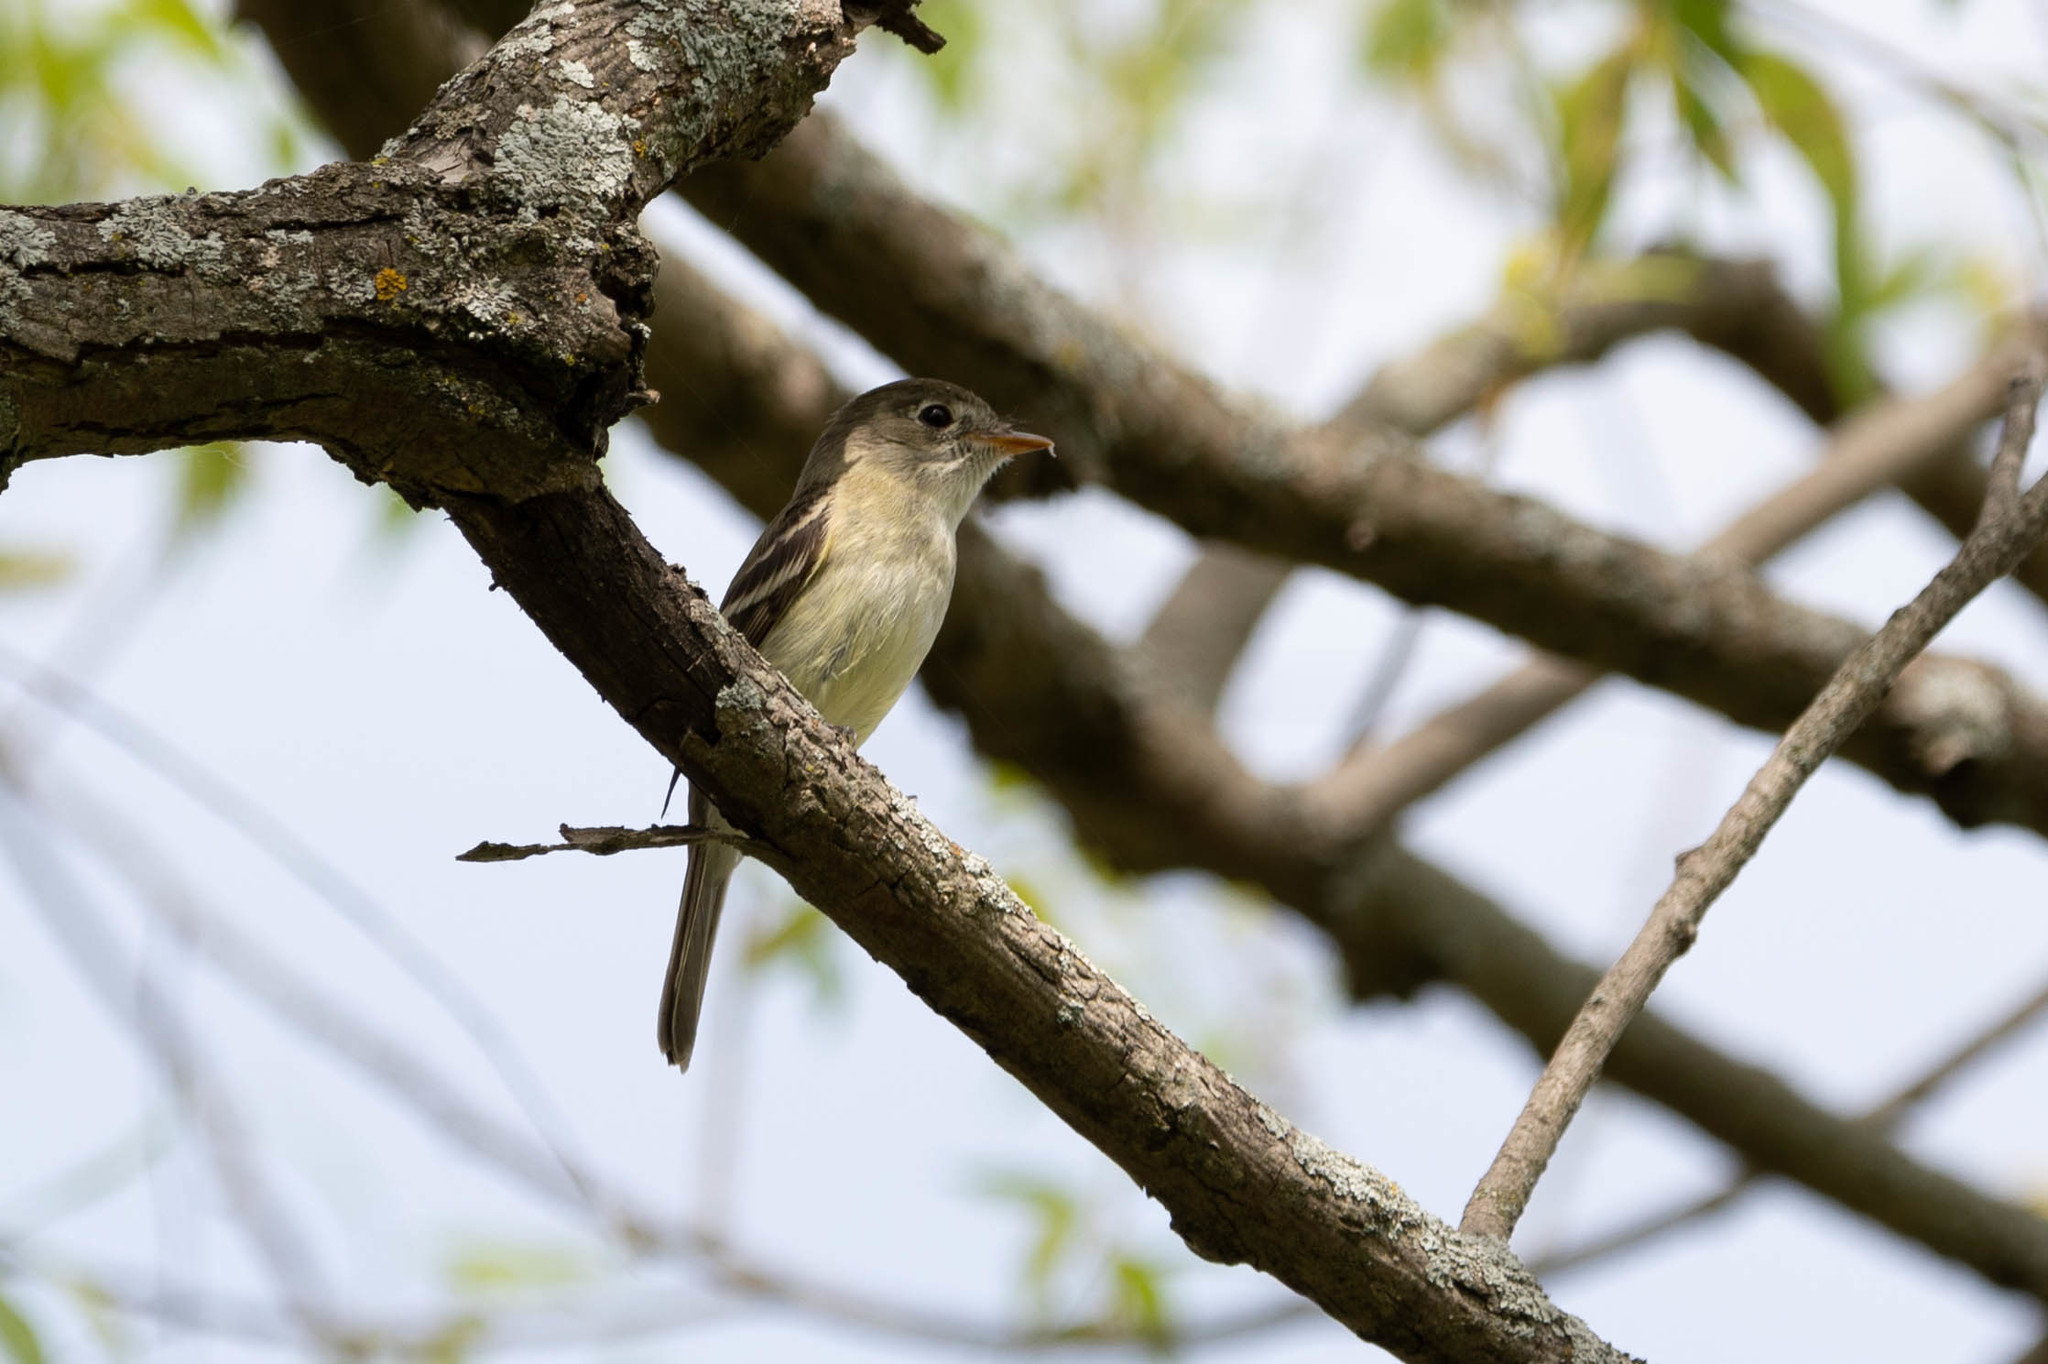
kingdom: Animalia
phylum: Chordata
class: Aves
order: Passeriformes
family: Tyrannidae
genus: Empidonax
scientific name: Empidonax minimus
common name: Least flycatcher
